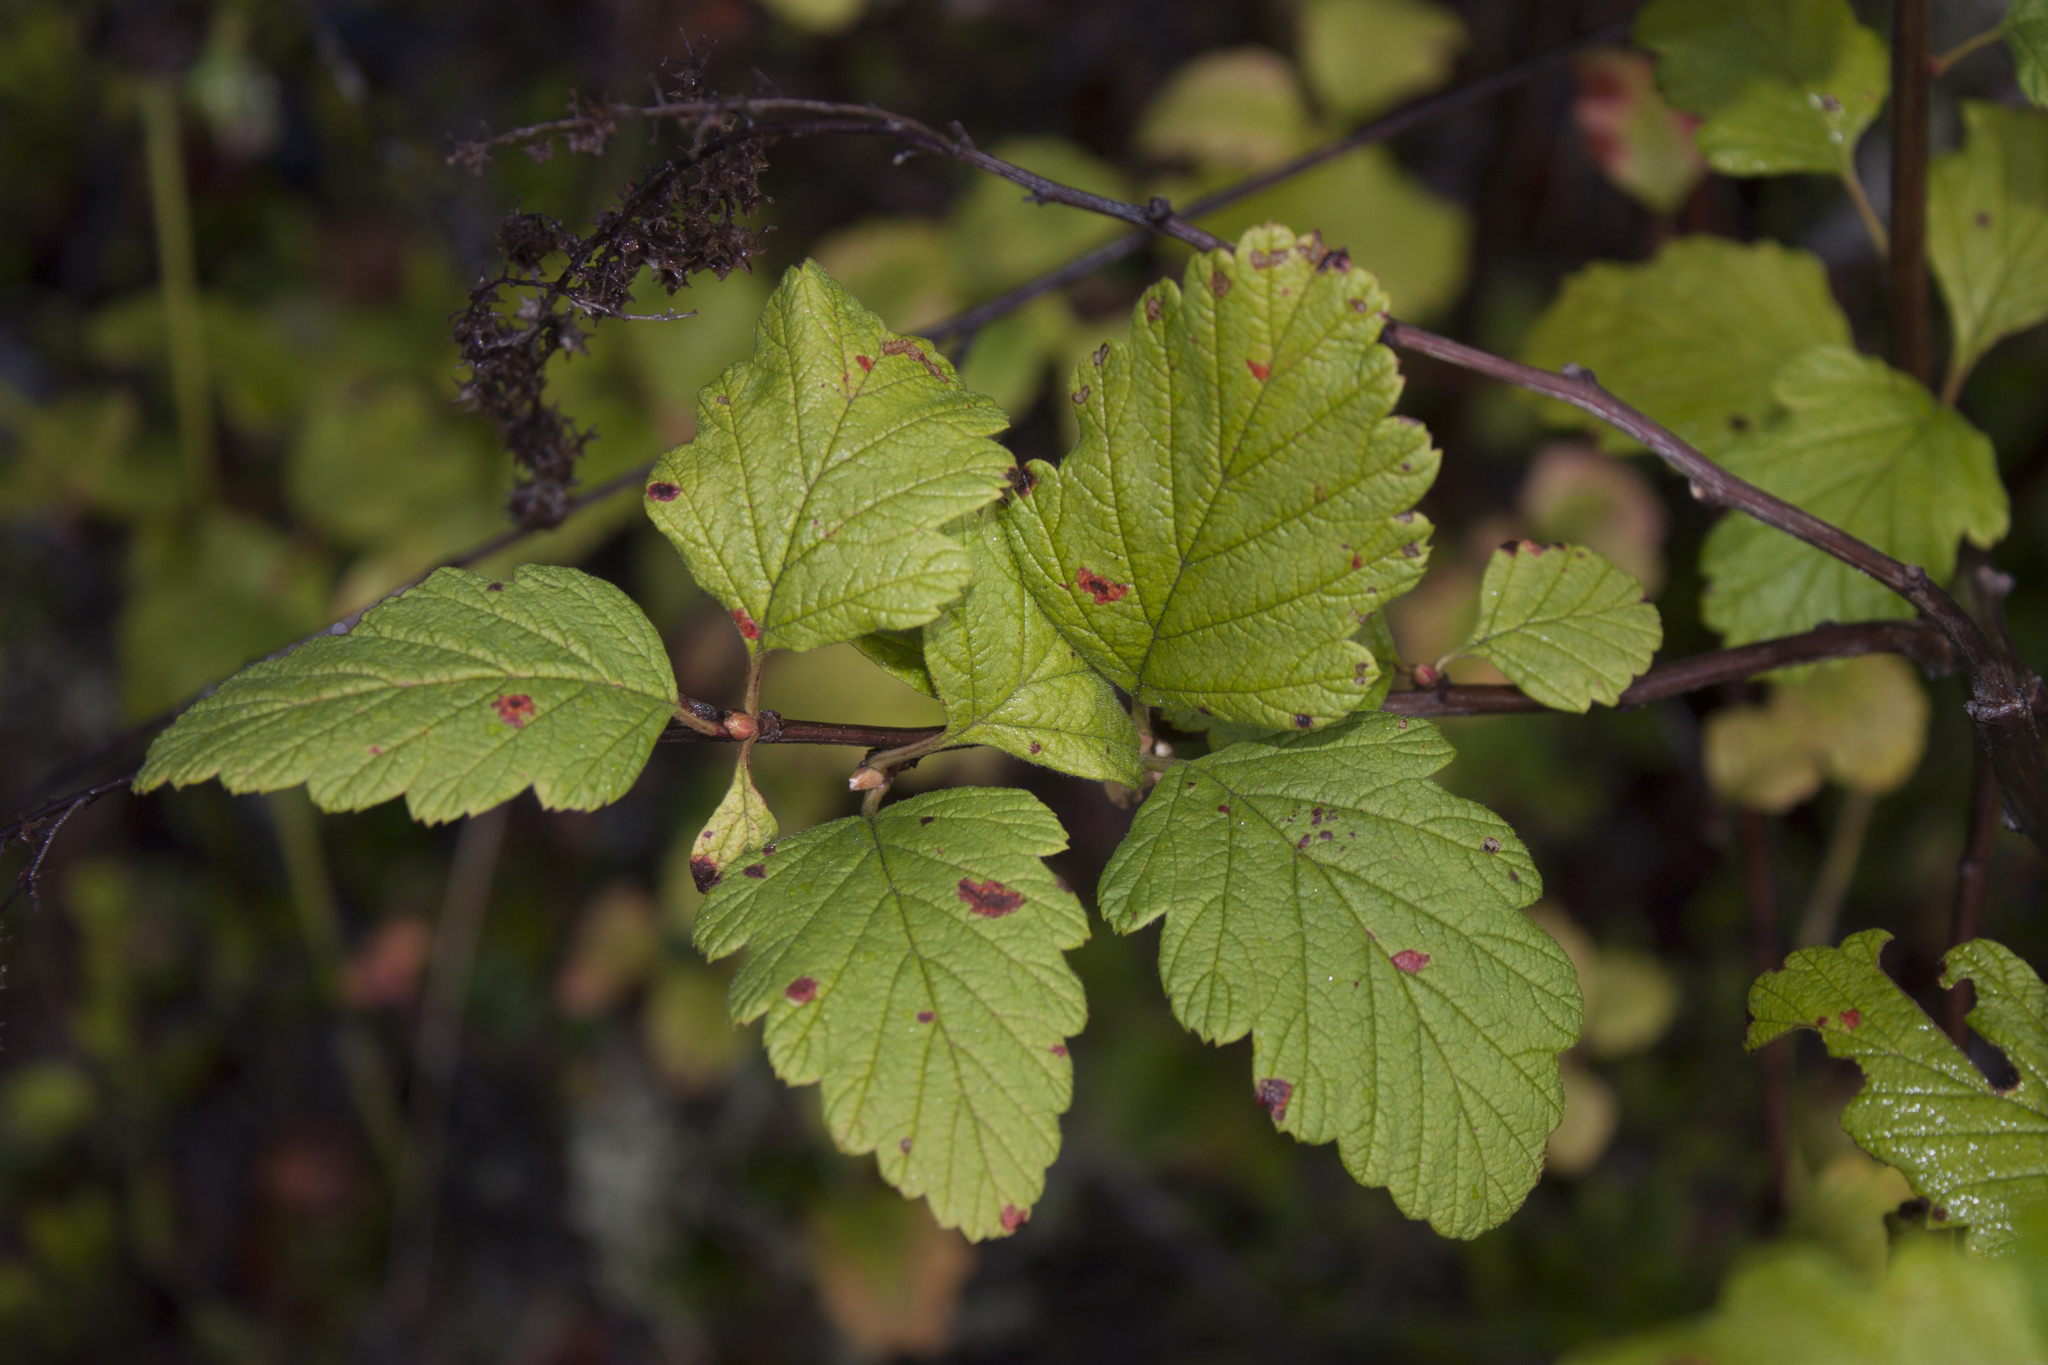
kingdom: Plantae
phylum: Tracheophyta
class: Magnoliopsida
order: Rosales
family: Rosaceae
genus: Holodiscus
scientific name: Holodiscus discolor
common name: Oceanspray
